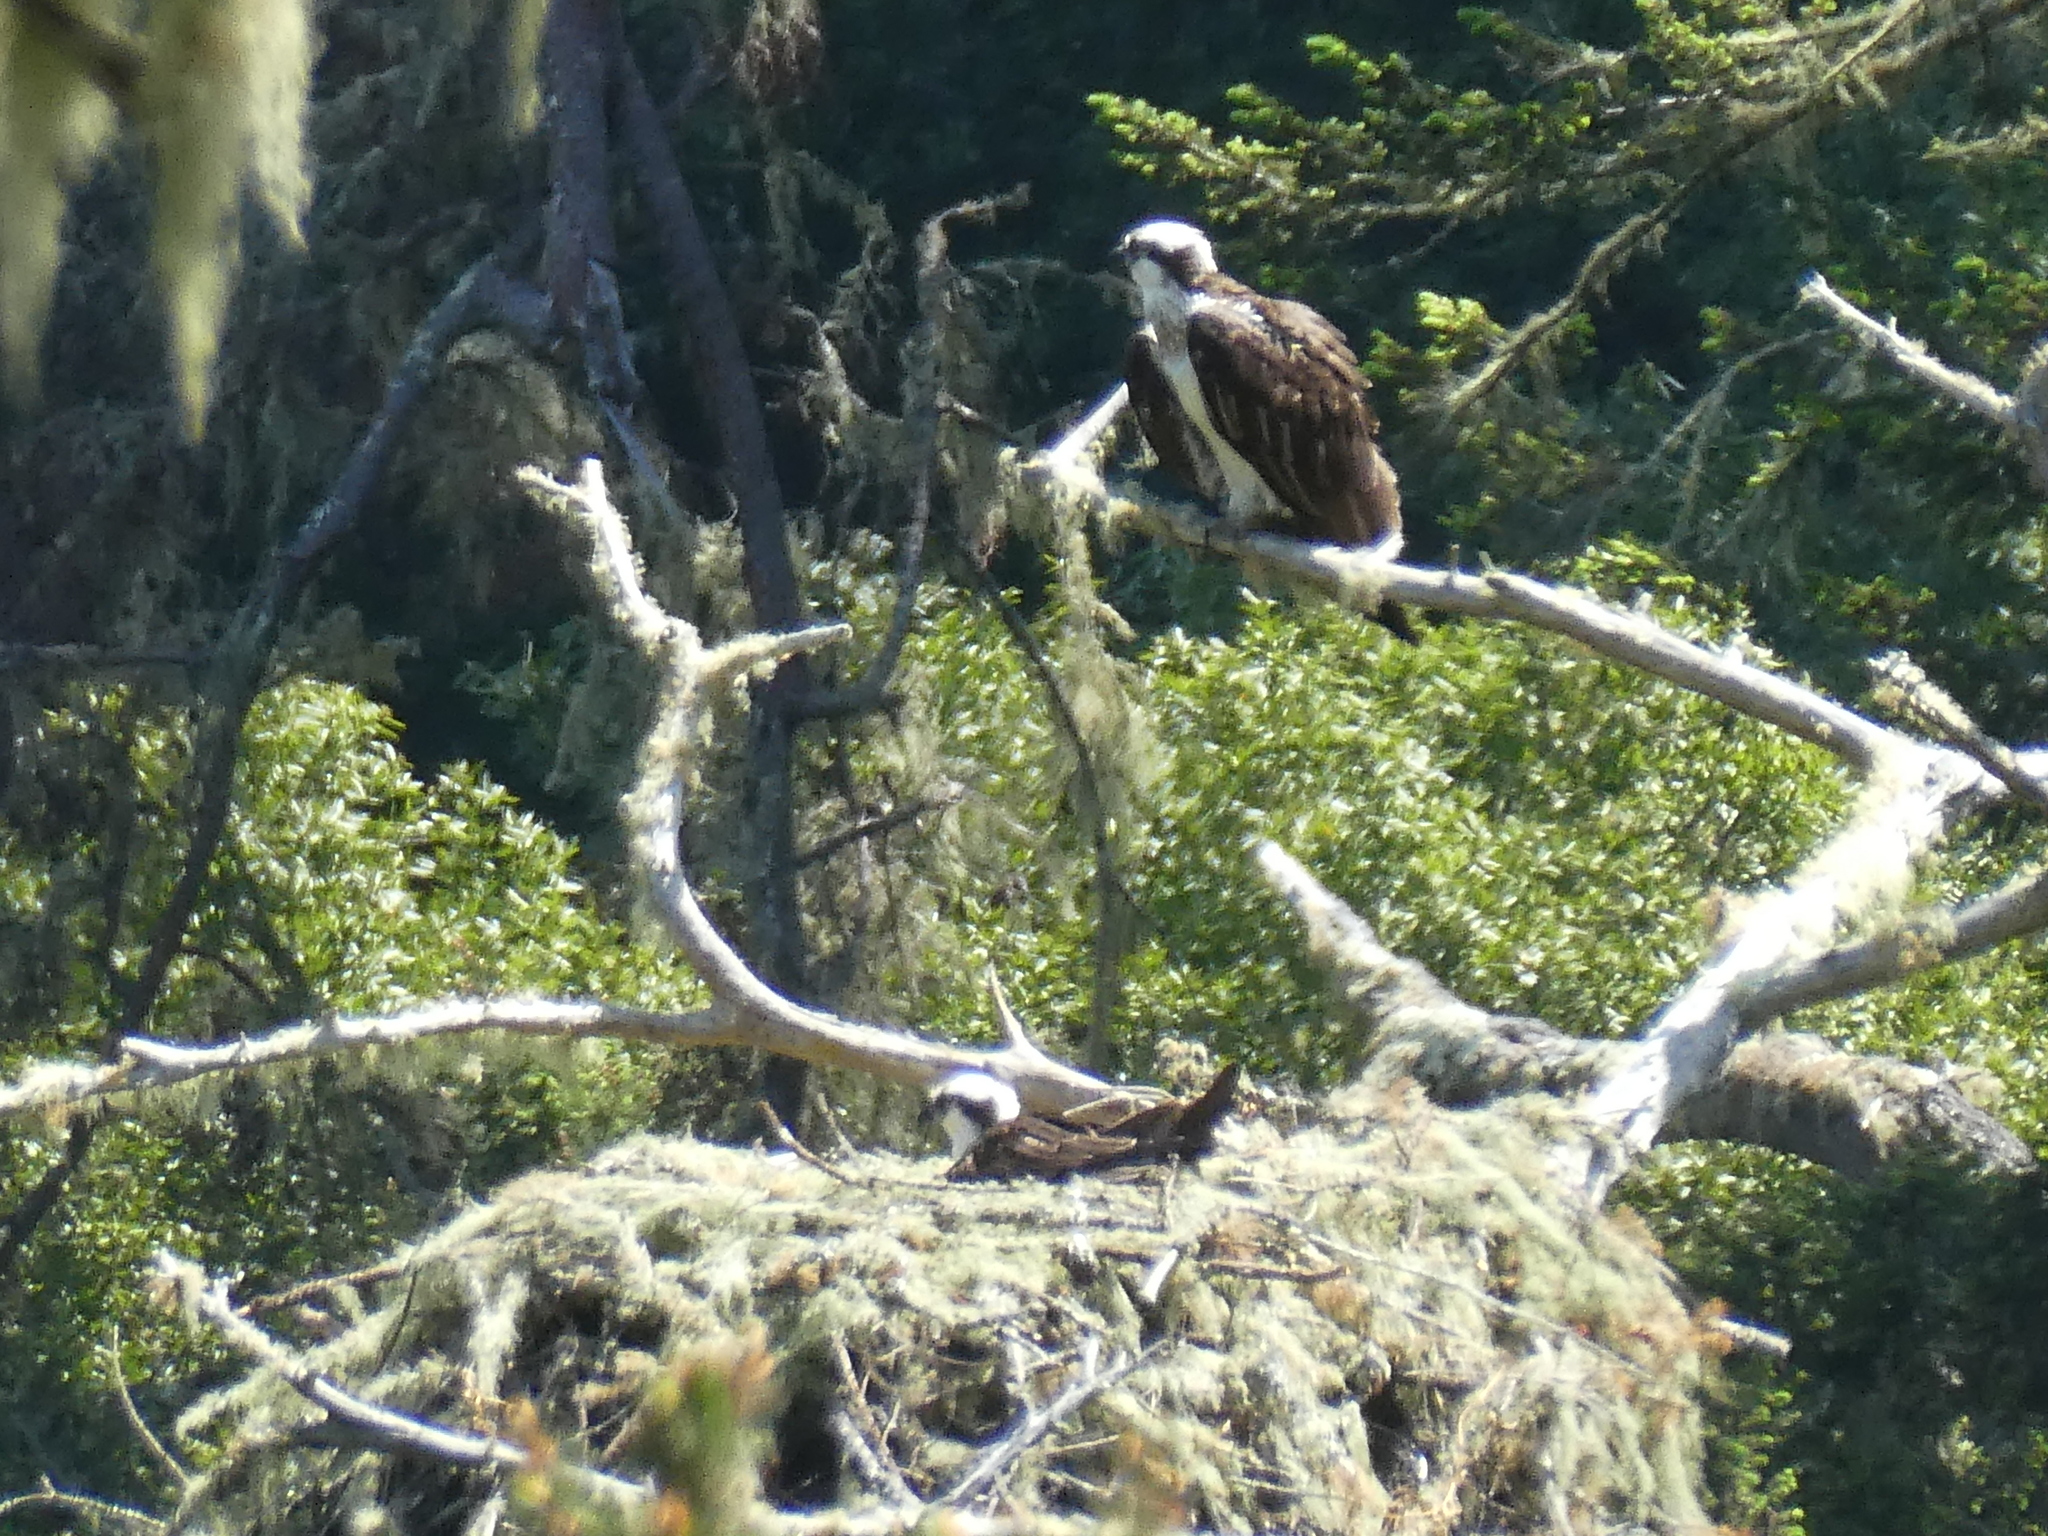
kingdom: Animalia
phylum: Chordata
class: Aves
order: Accipitriformes
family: Pandionidae
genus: Pandion
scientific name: Pandion haliaetus
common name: Osprey
